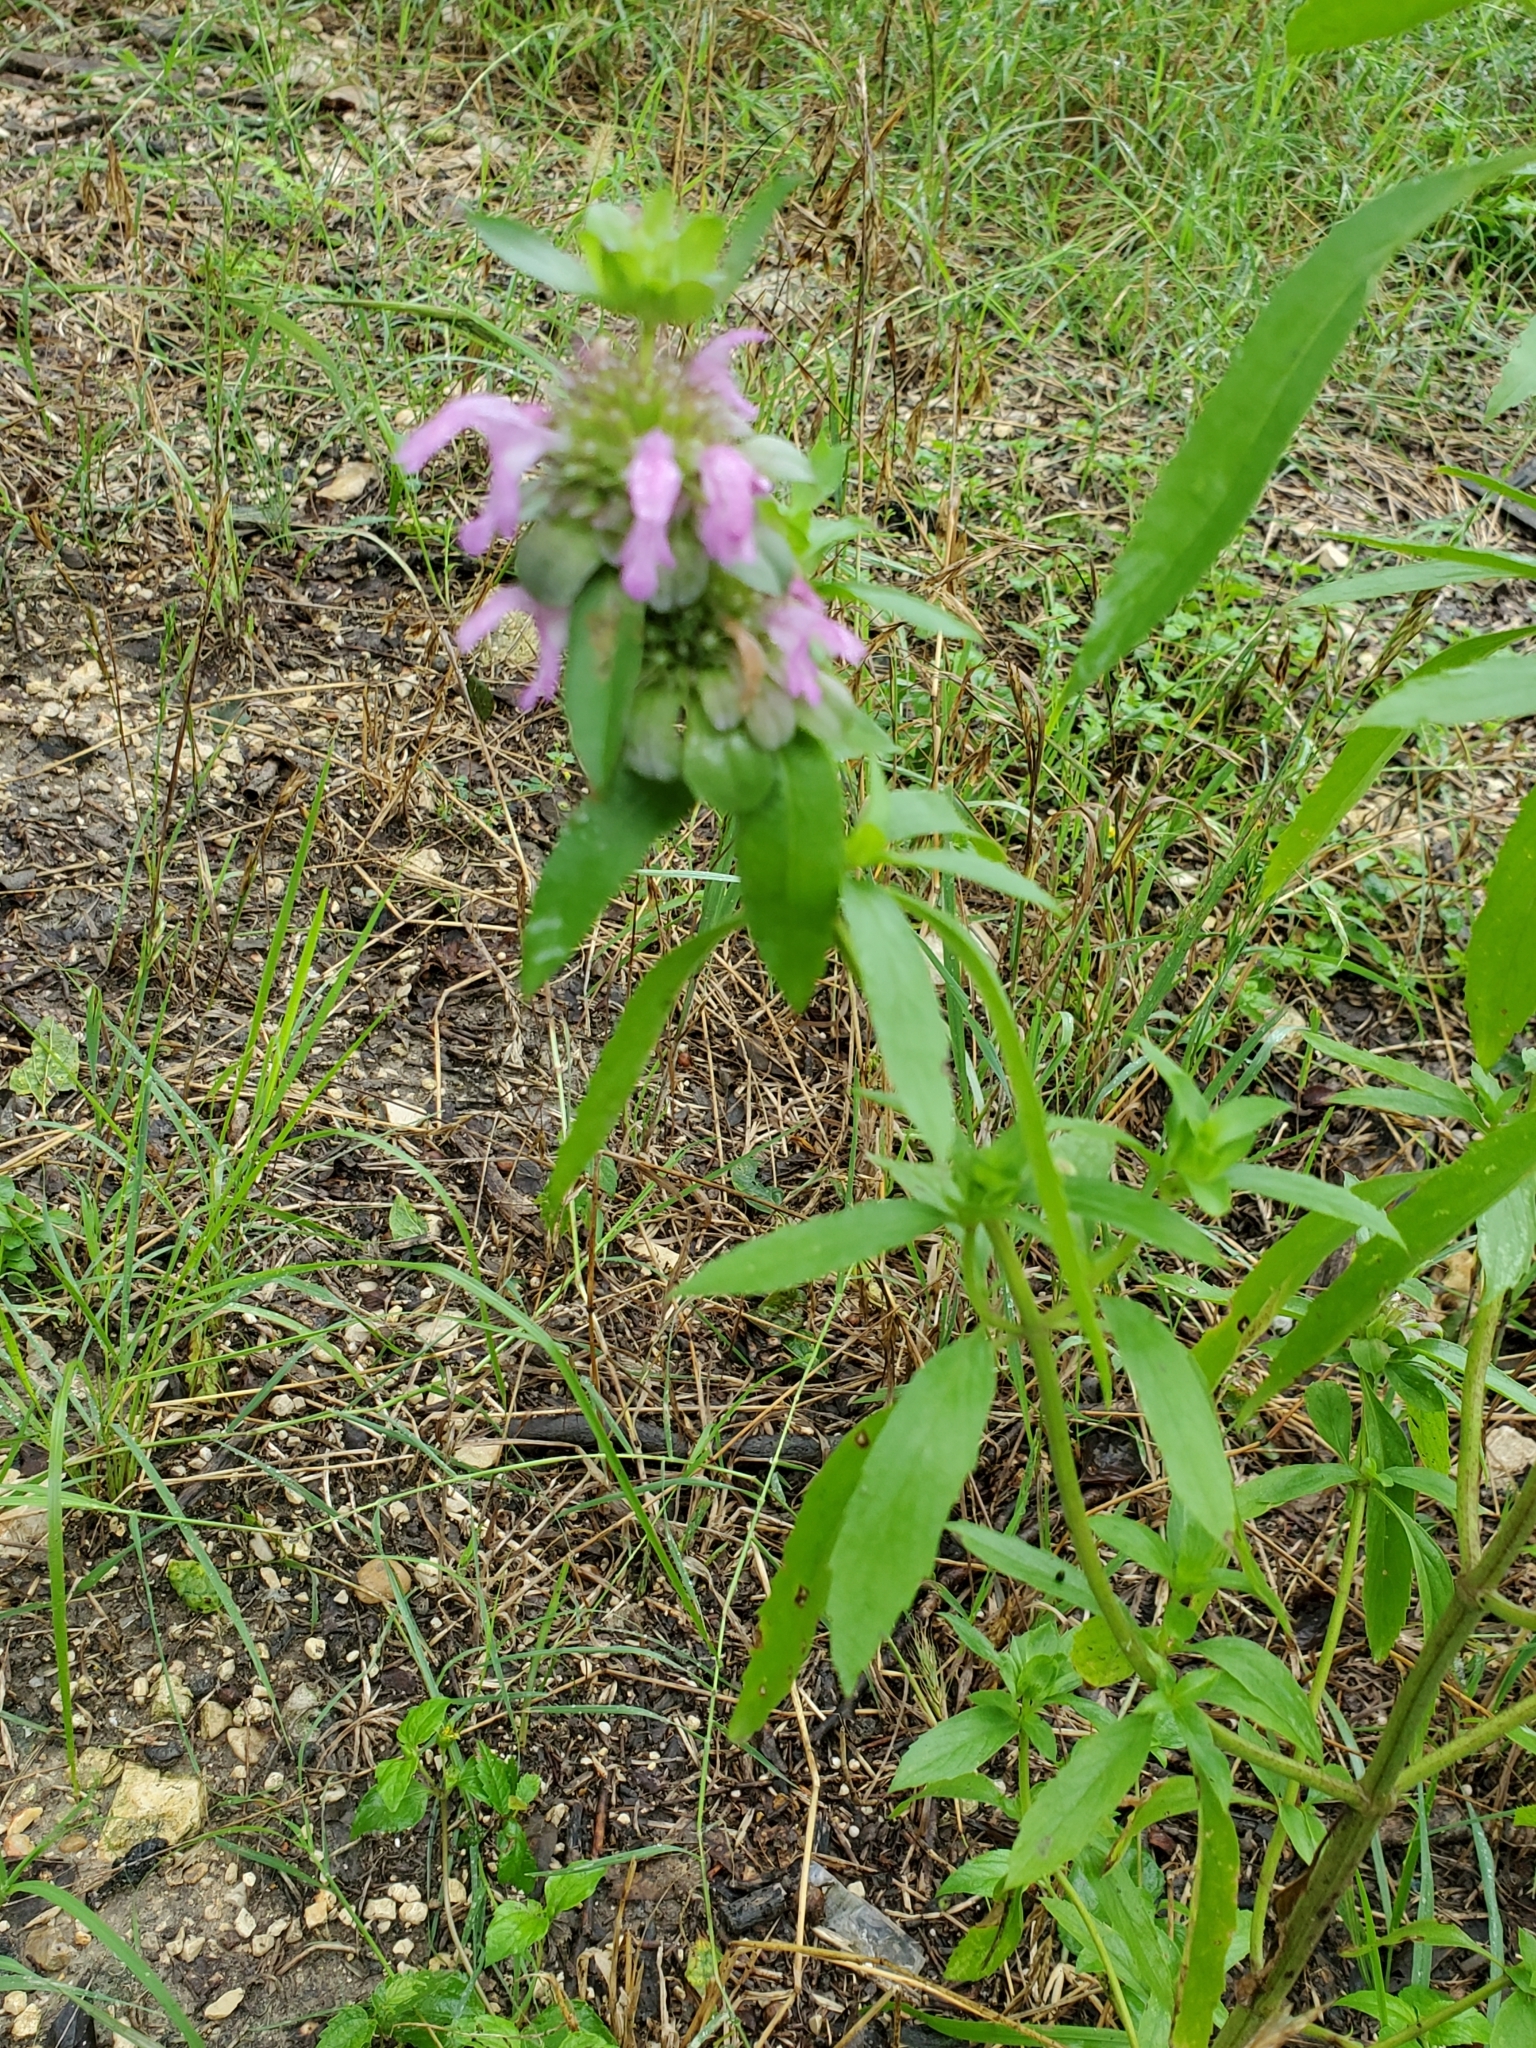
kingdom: Plantae
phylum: Tracheophyta
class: Magnoliopsida
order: Lamiales
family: Lamiaceae
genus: Monarda
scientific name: Monarda citriodora
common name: Lemon beebalm
